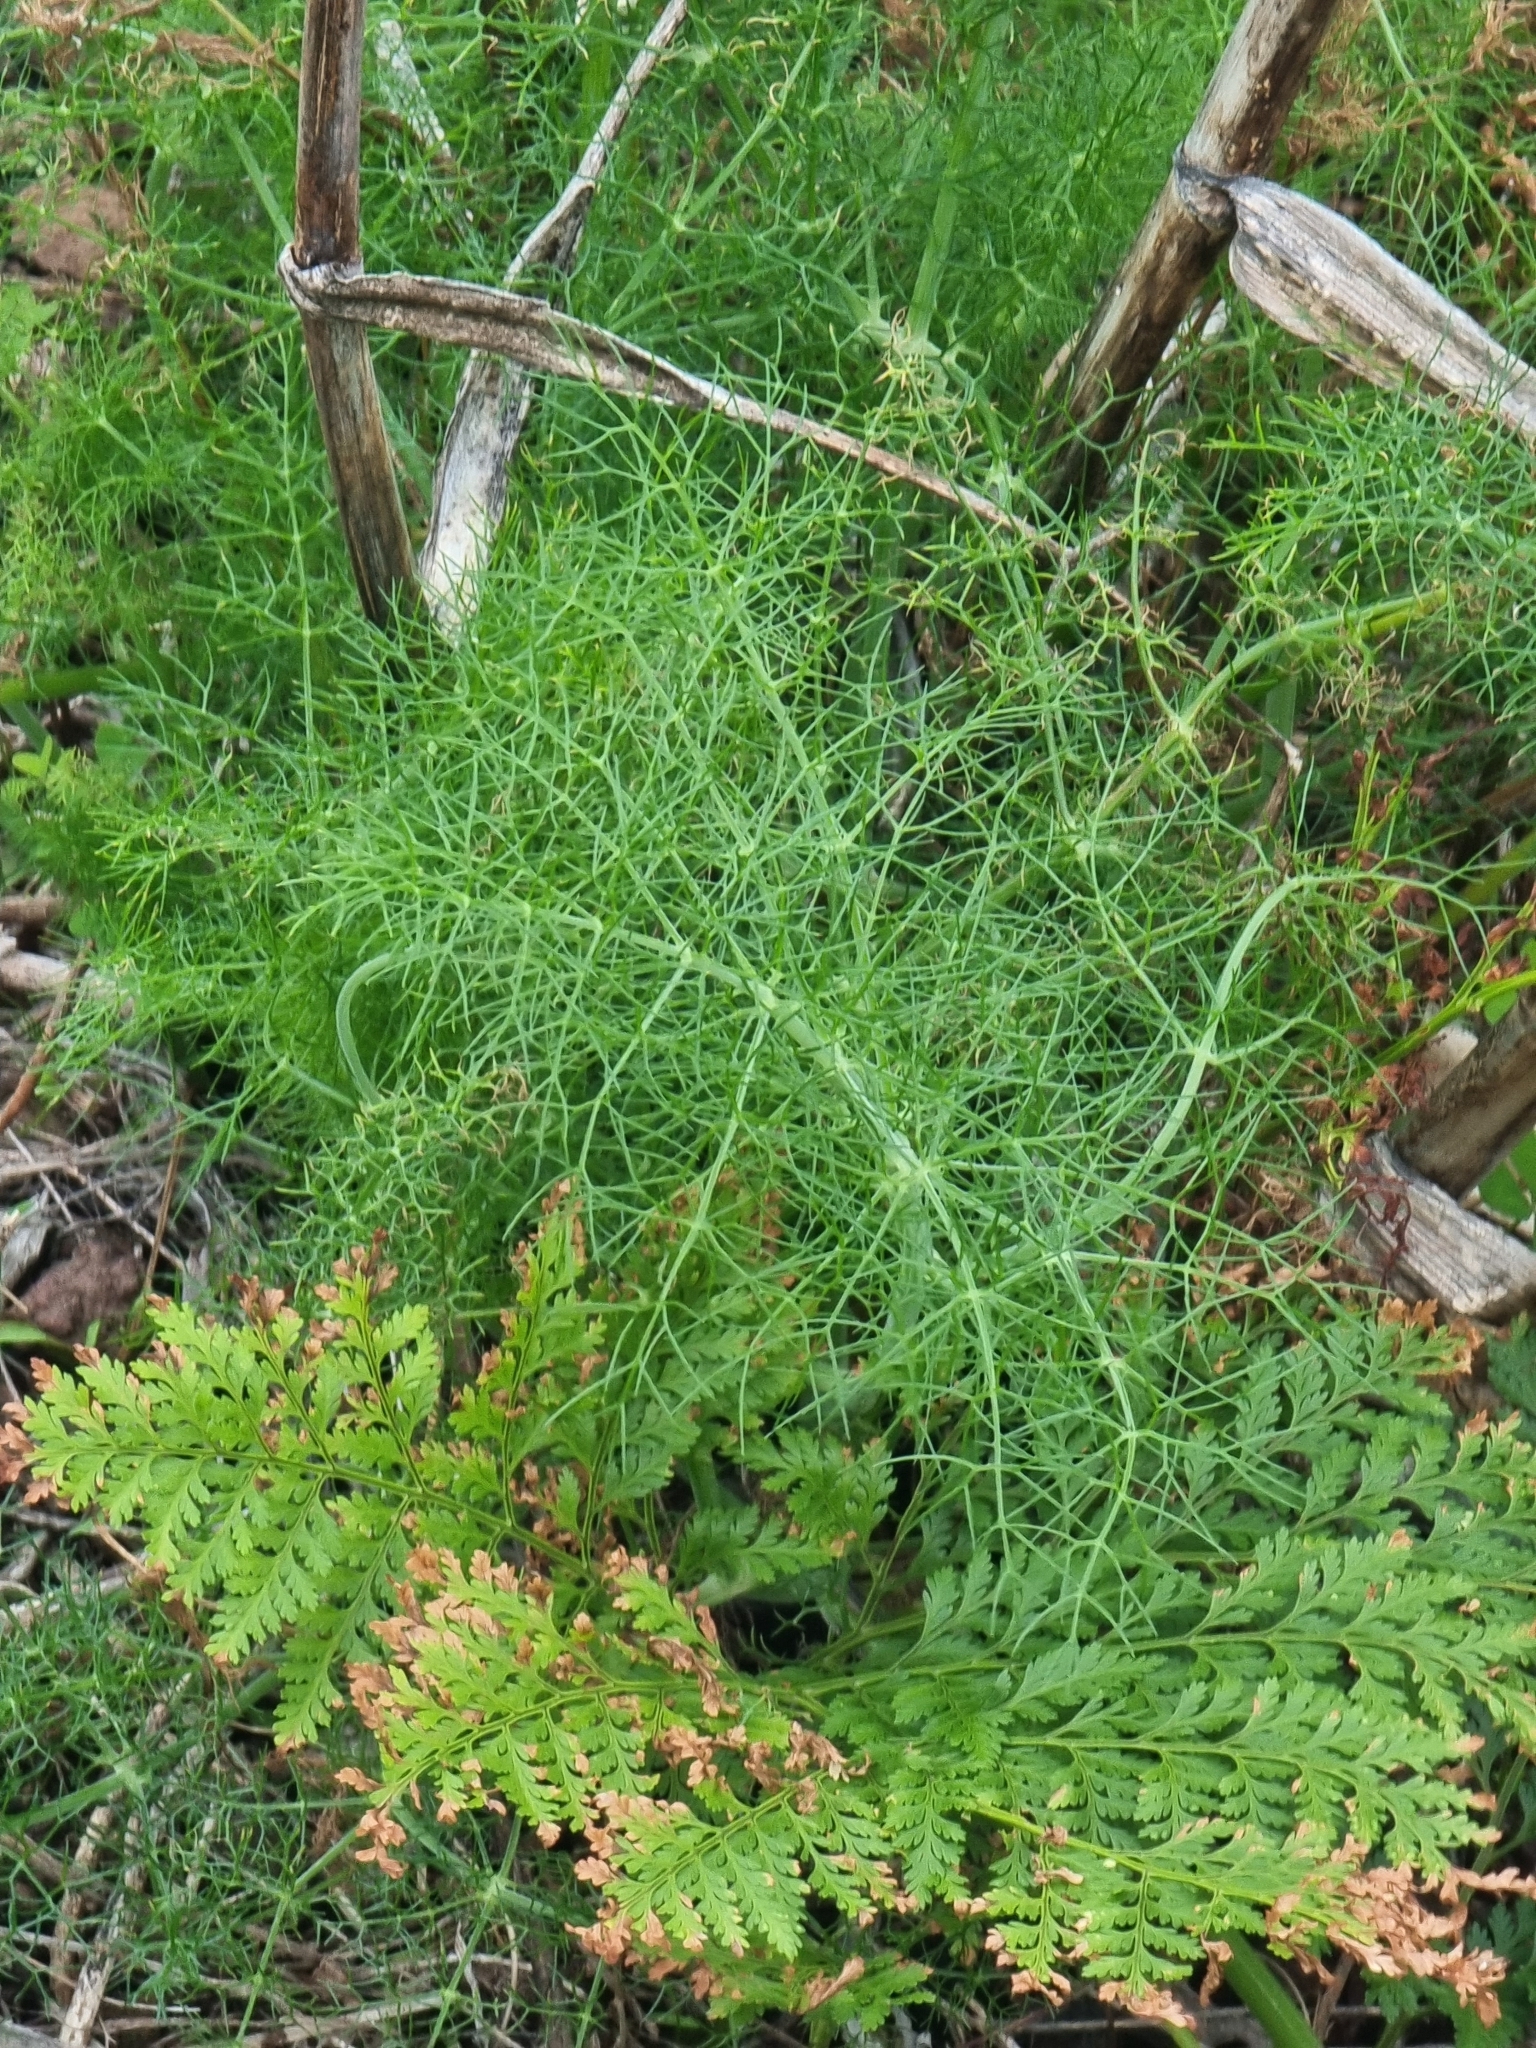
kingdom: Plantae
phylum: Tracheophyta
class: Magnoliopsida
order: Apiales
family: Apiaceae
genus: Foeniculum
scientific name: Foeniculum vulgare
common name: Fennel
